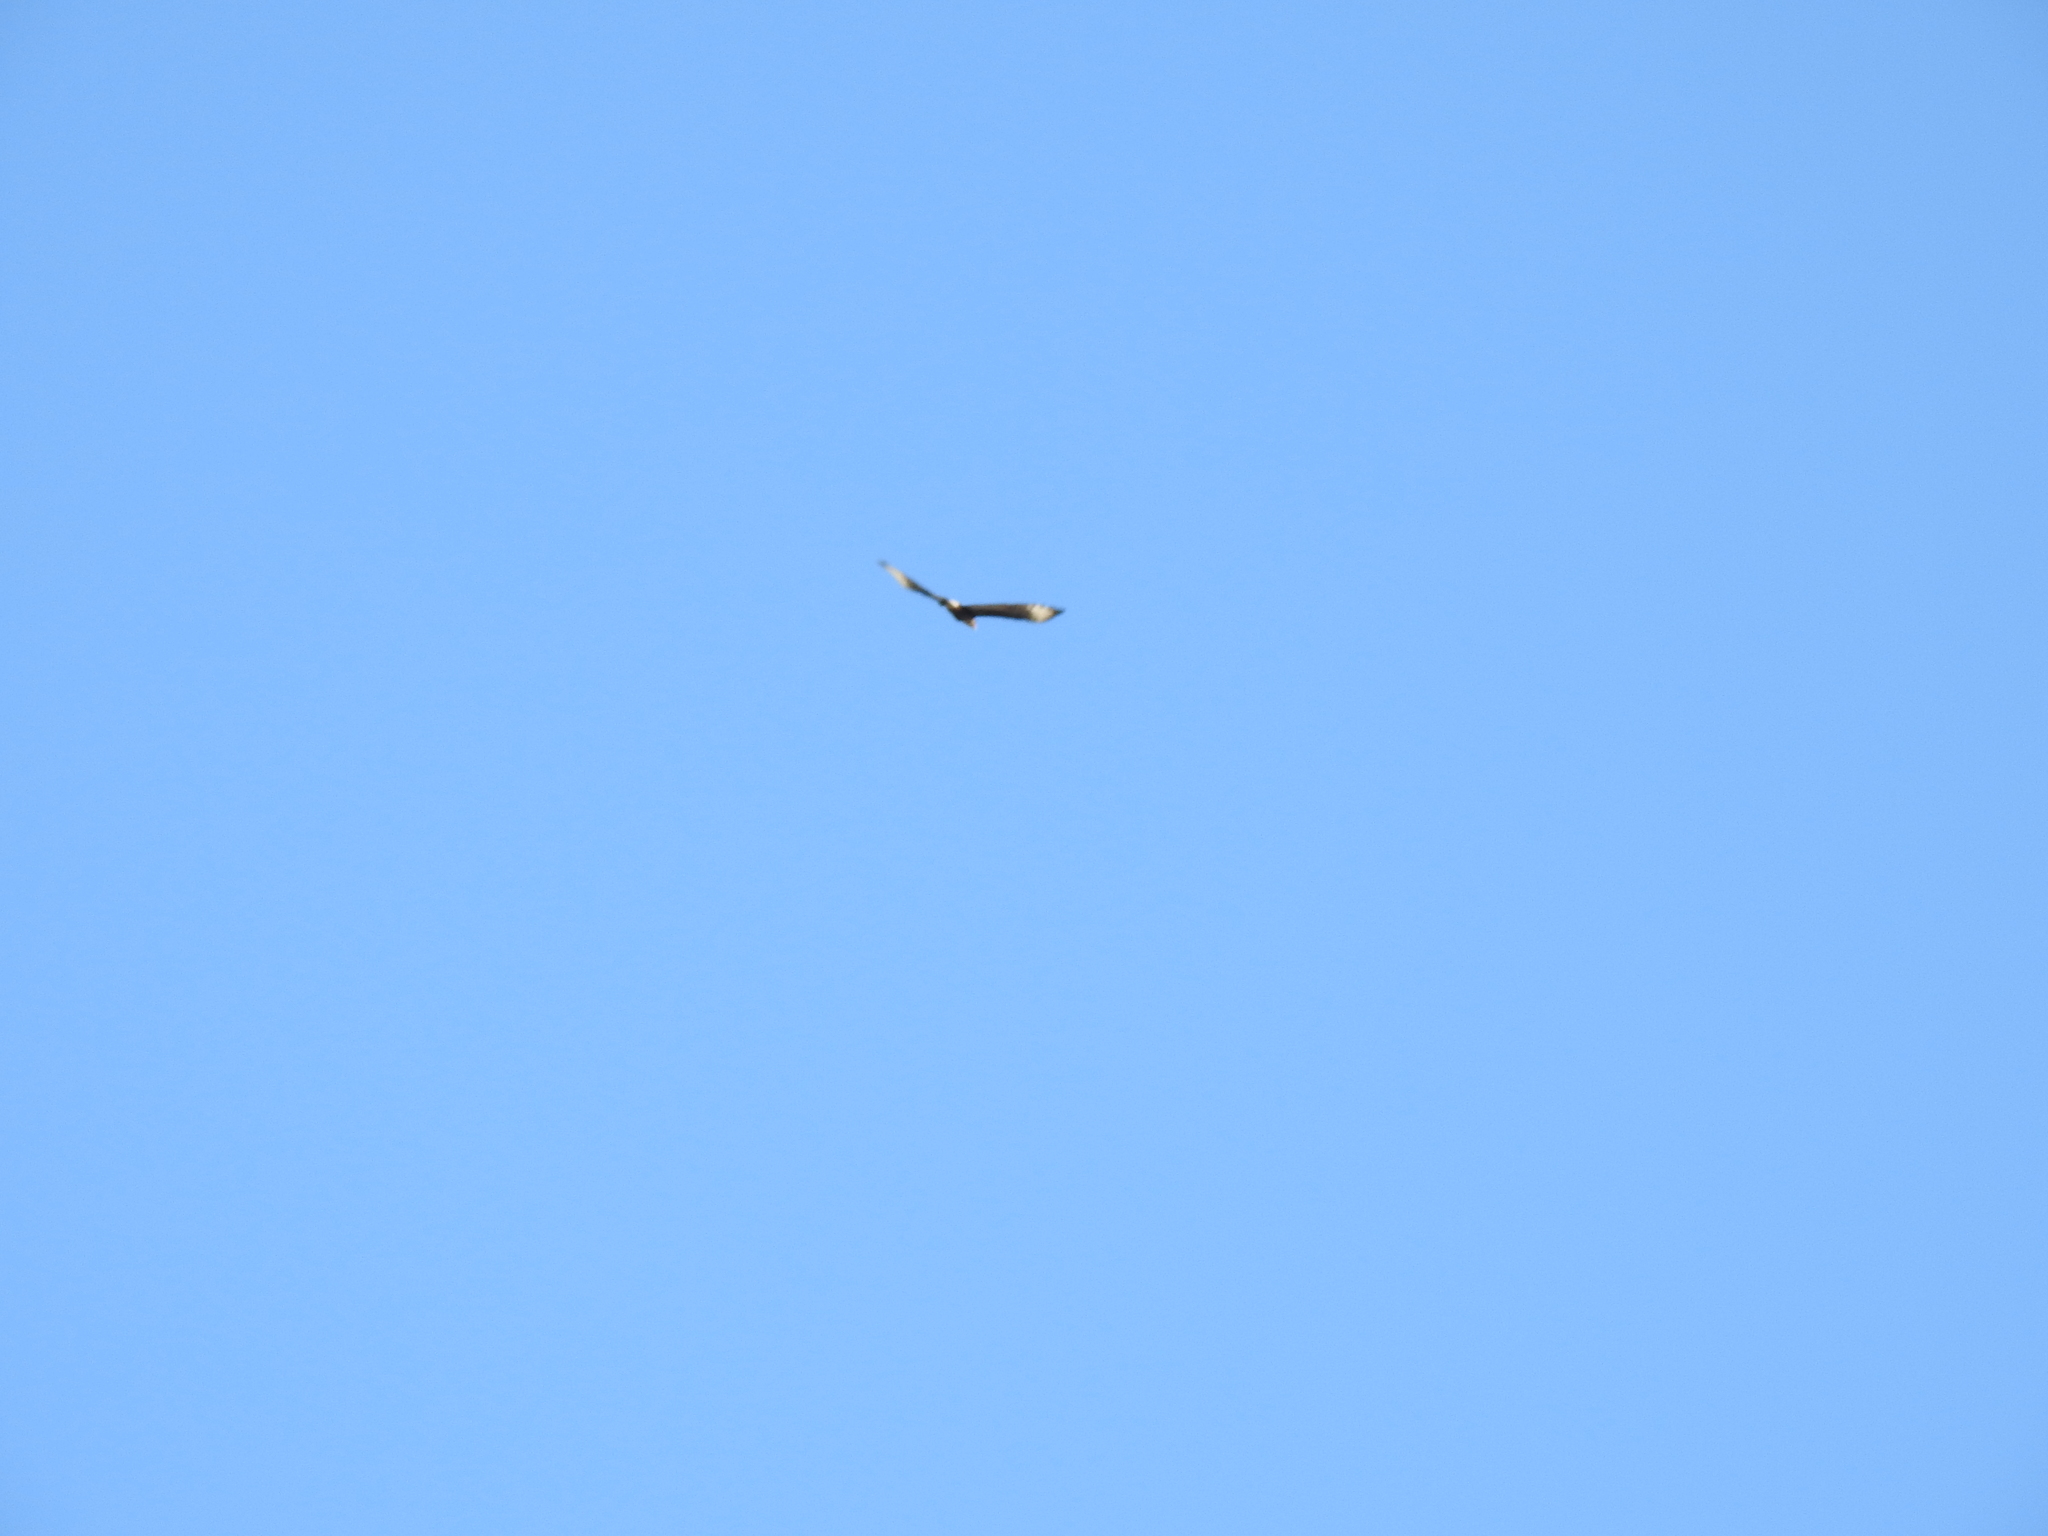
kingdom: Animalia
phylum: Chordata
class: Aves
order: Falconiformes
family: Falconidae
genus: Caracara
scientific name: Caracara plancus
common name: Southern caracara
